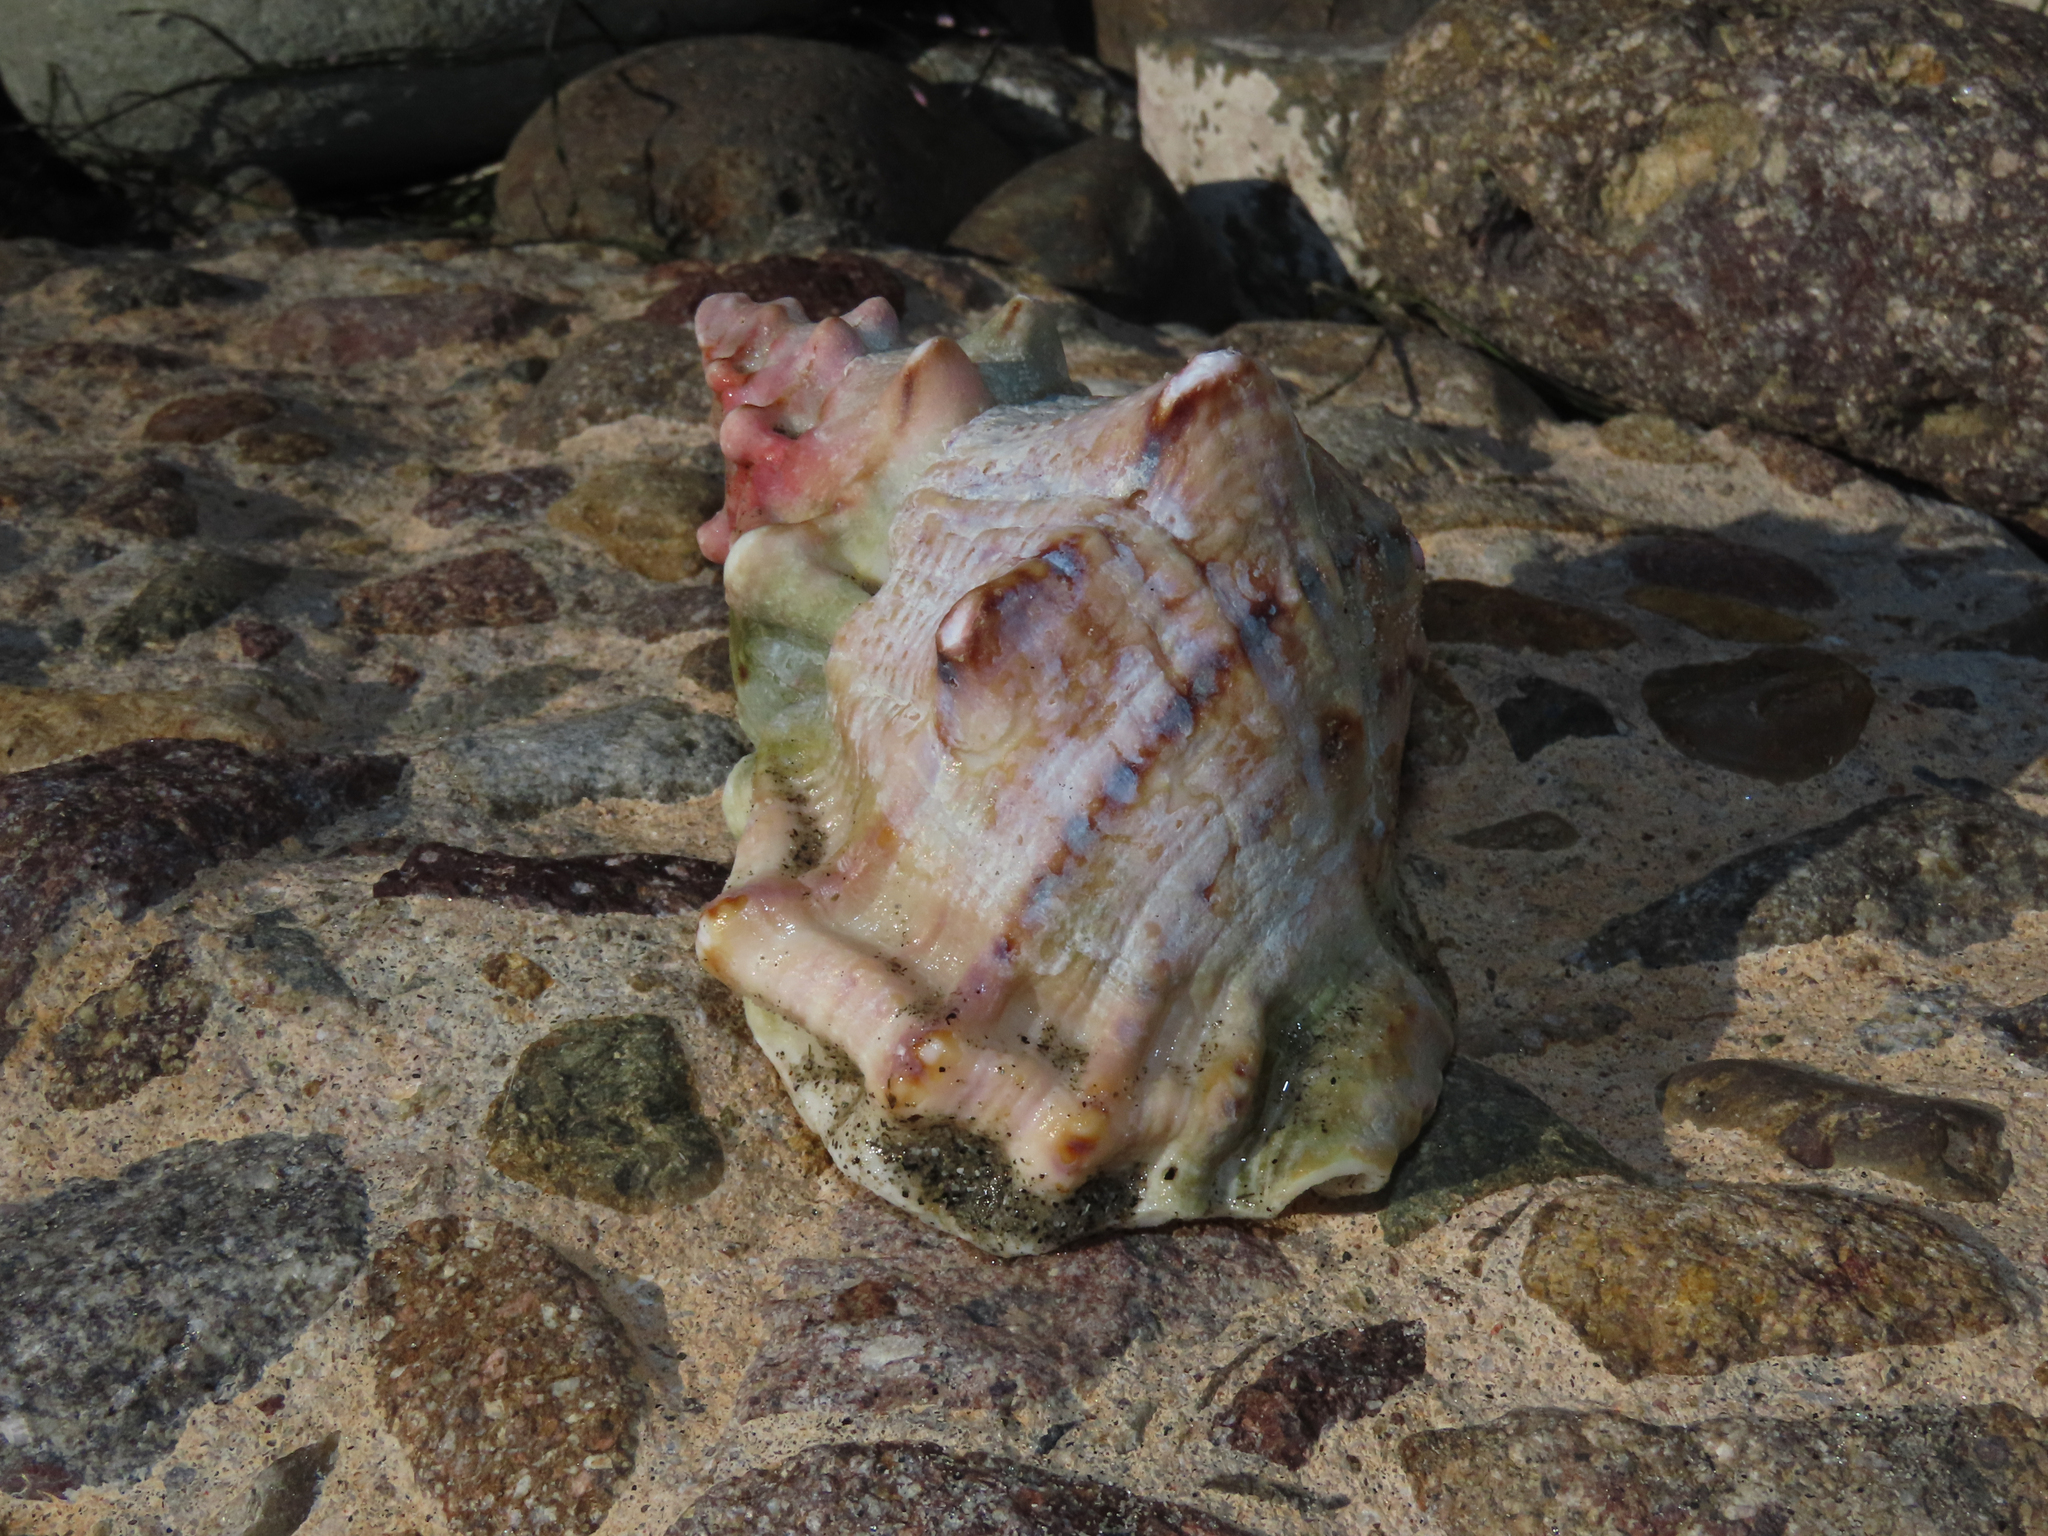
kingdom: Animalia
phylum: Mollusca
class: Gastropoda
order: Littorinimorpha
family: Bursidae
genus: Crossata
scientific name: Crossata californica
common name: California frogsnail
